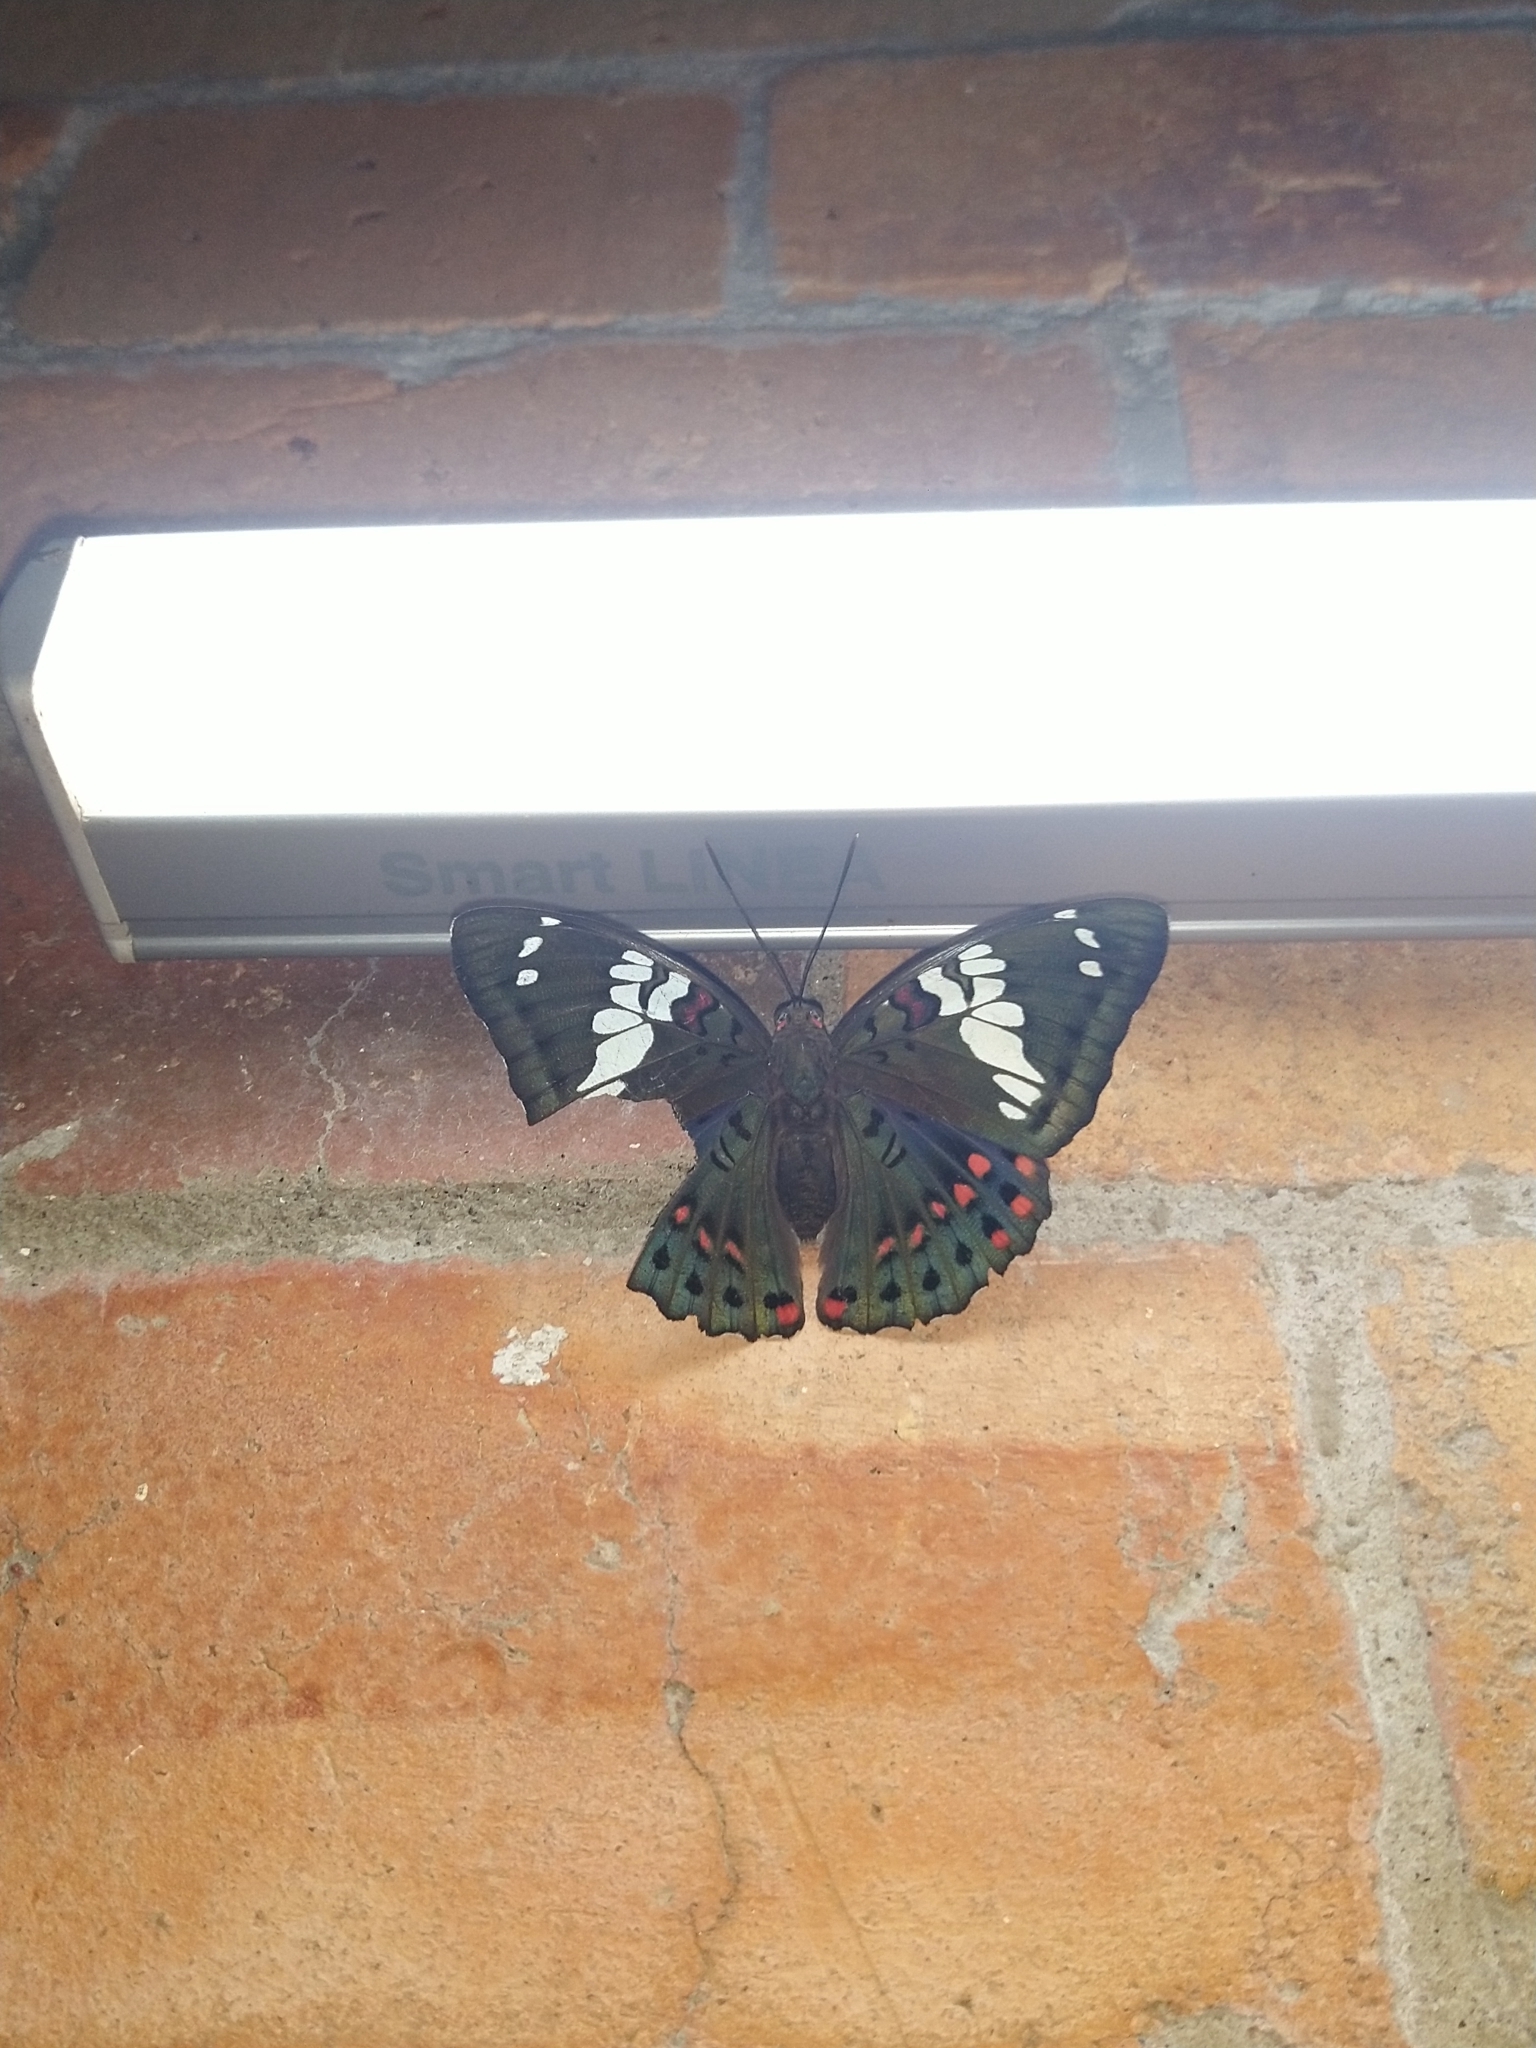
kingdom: Animalia
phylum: Arthropoda
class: Insecta
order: Lepidoptera
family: Nymphalidae
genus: Euthalia
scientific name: Euthalia lubentina
